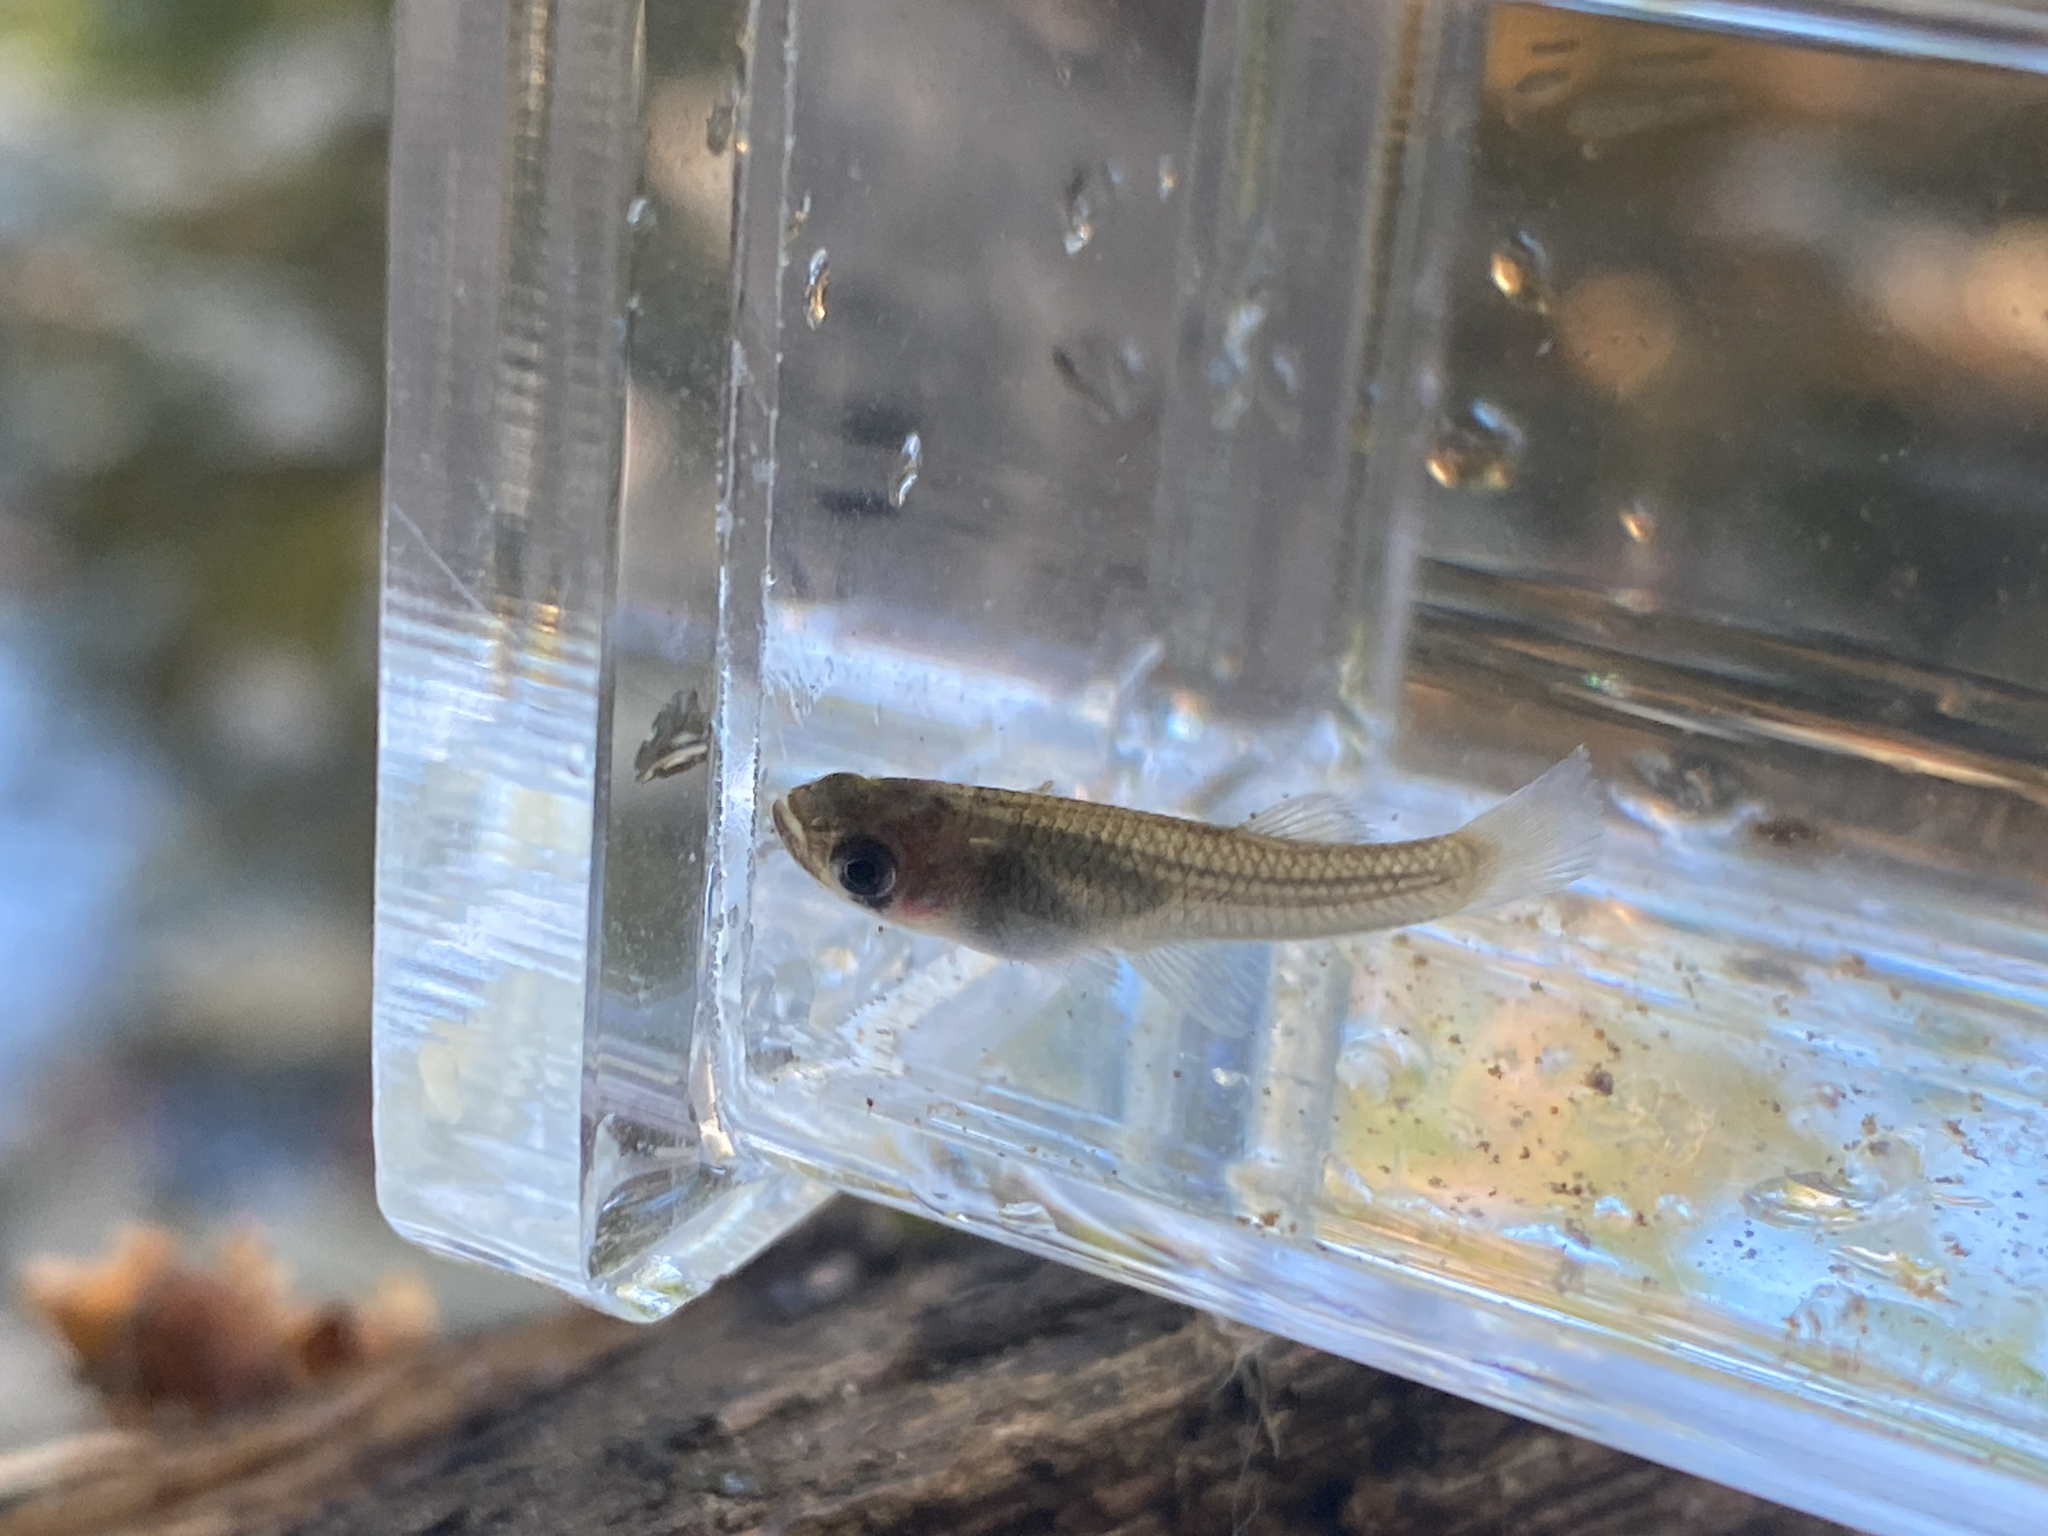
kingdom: Animalia
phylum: Chordata
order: Cyprinodontiformes
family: Poeciliidae
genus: Gambusia
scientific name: Gambusia holbrooki
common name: Eastern mosquitofish
